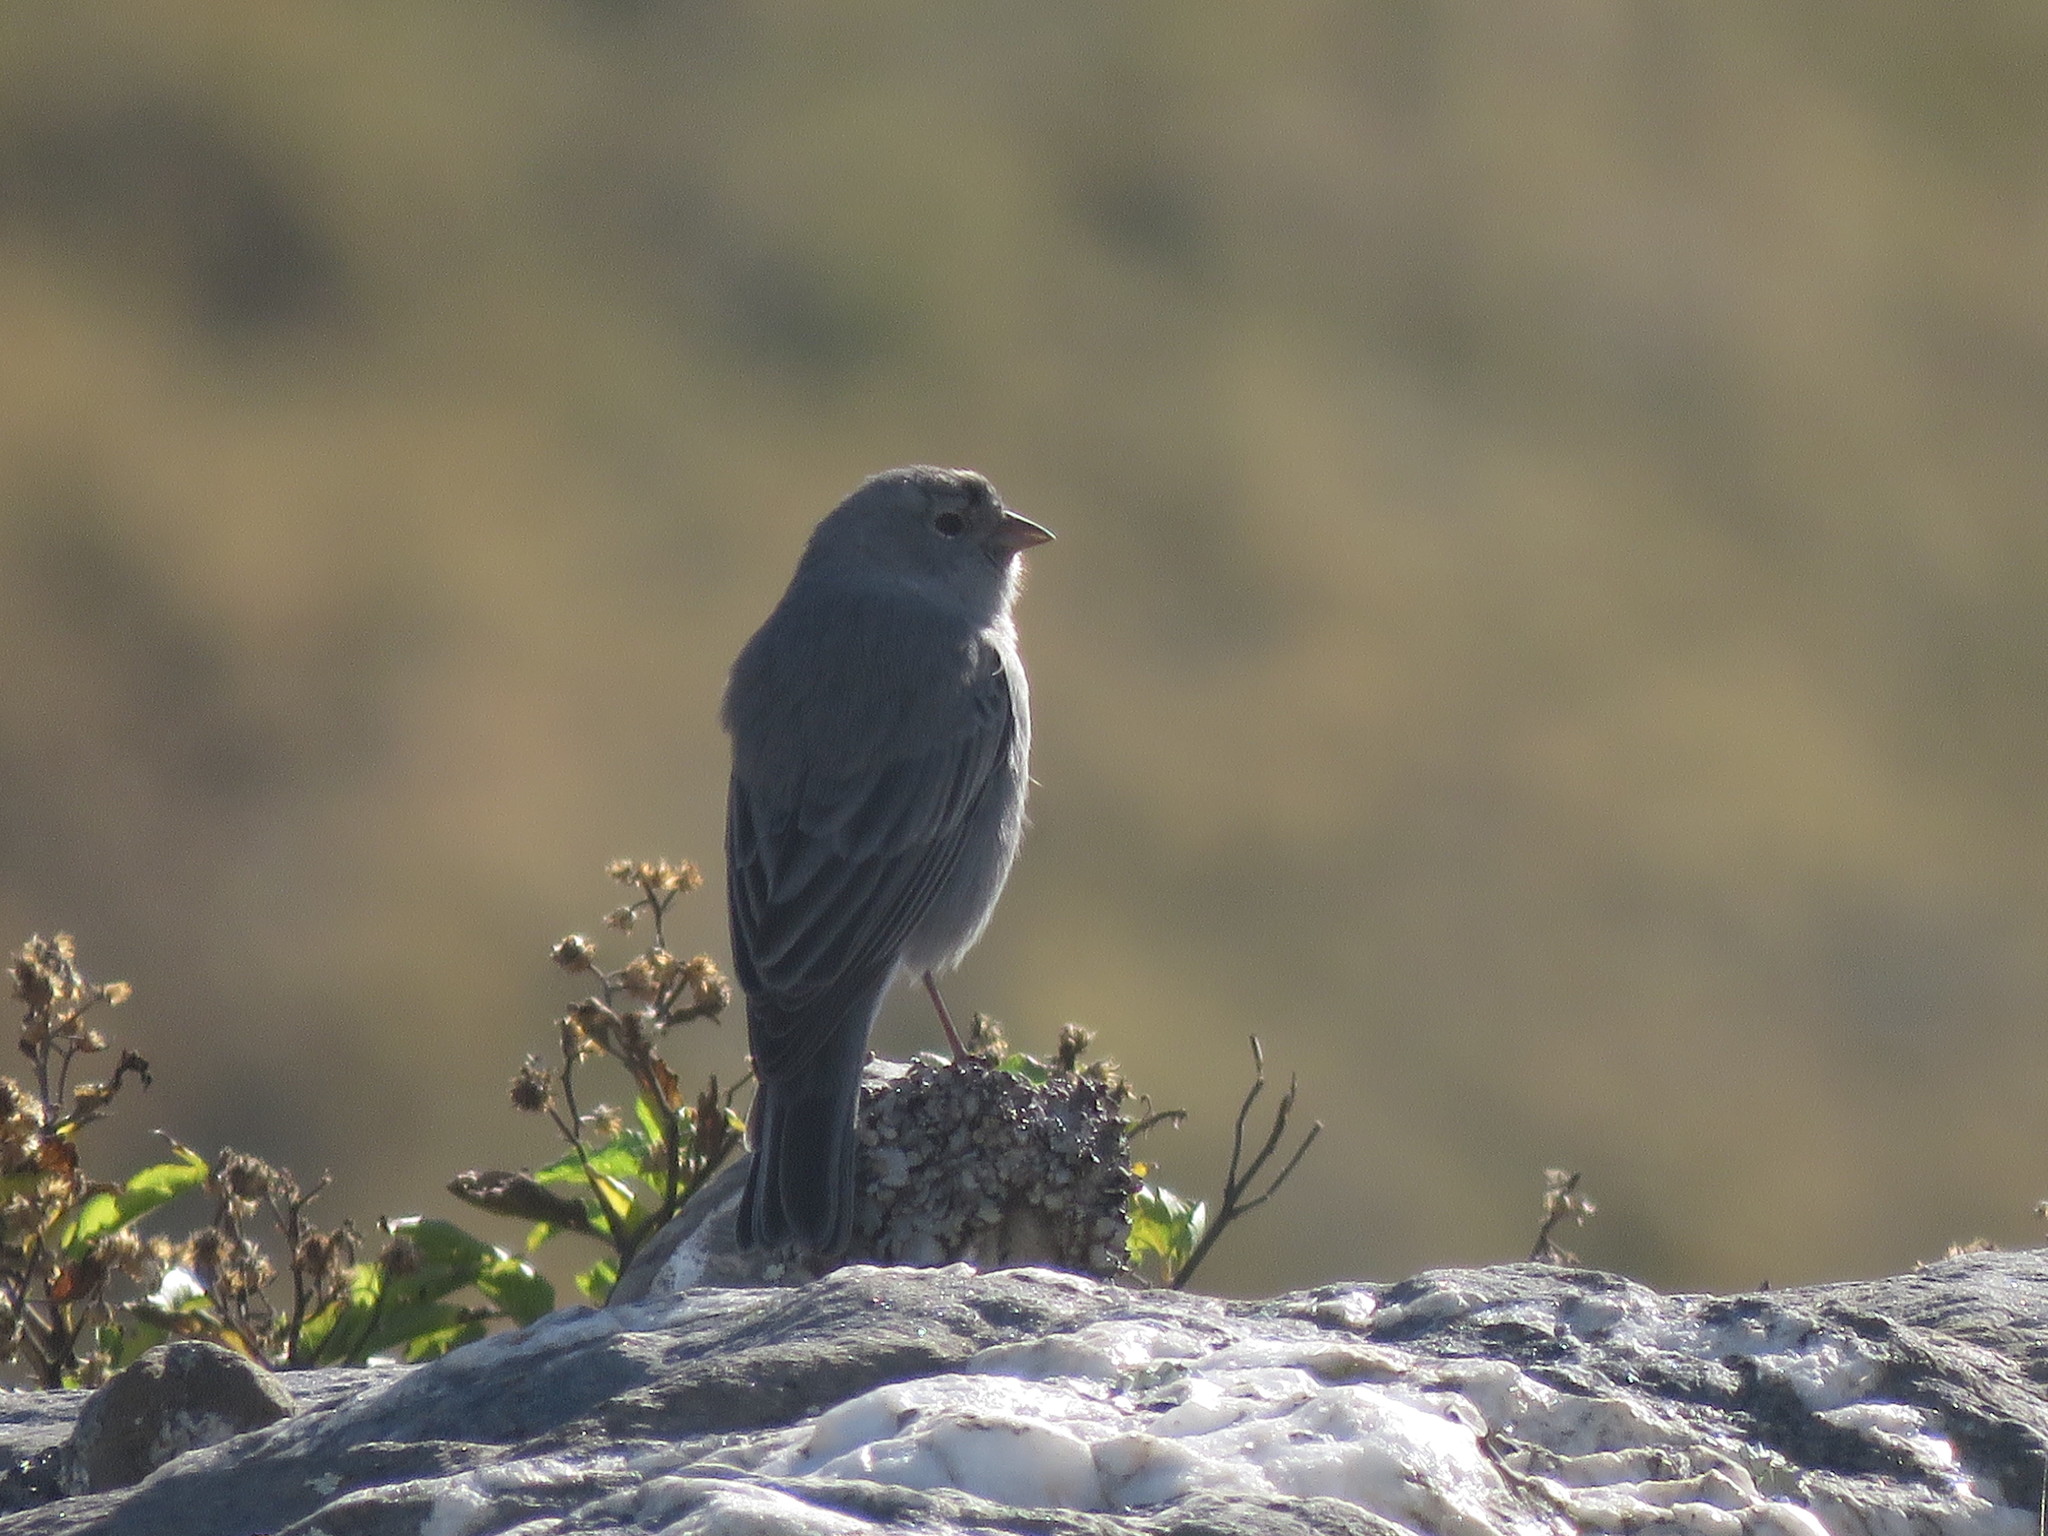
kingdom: Animalia
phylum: Chordata
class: Aves
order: Passeriformes
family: Thraupidae
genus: Geospizopsis
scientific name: Geospizopsis unicolor
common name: Plumbeous sierra-finch
